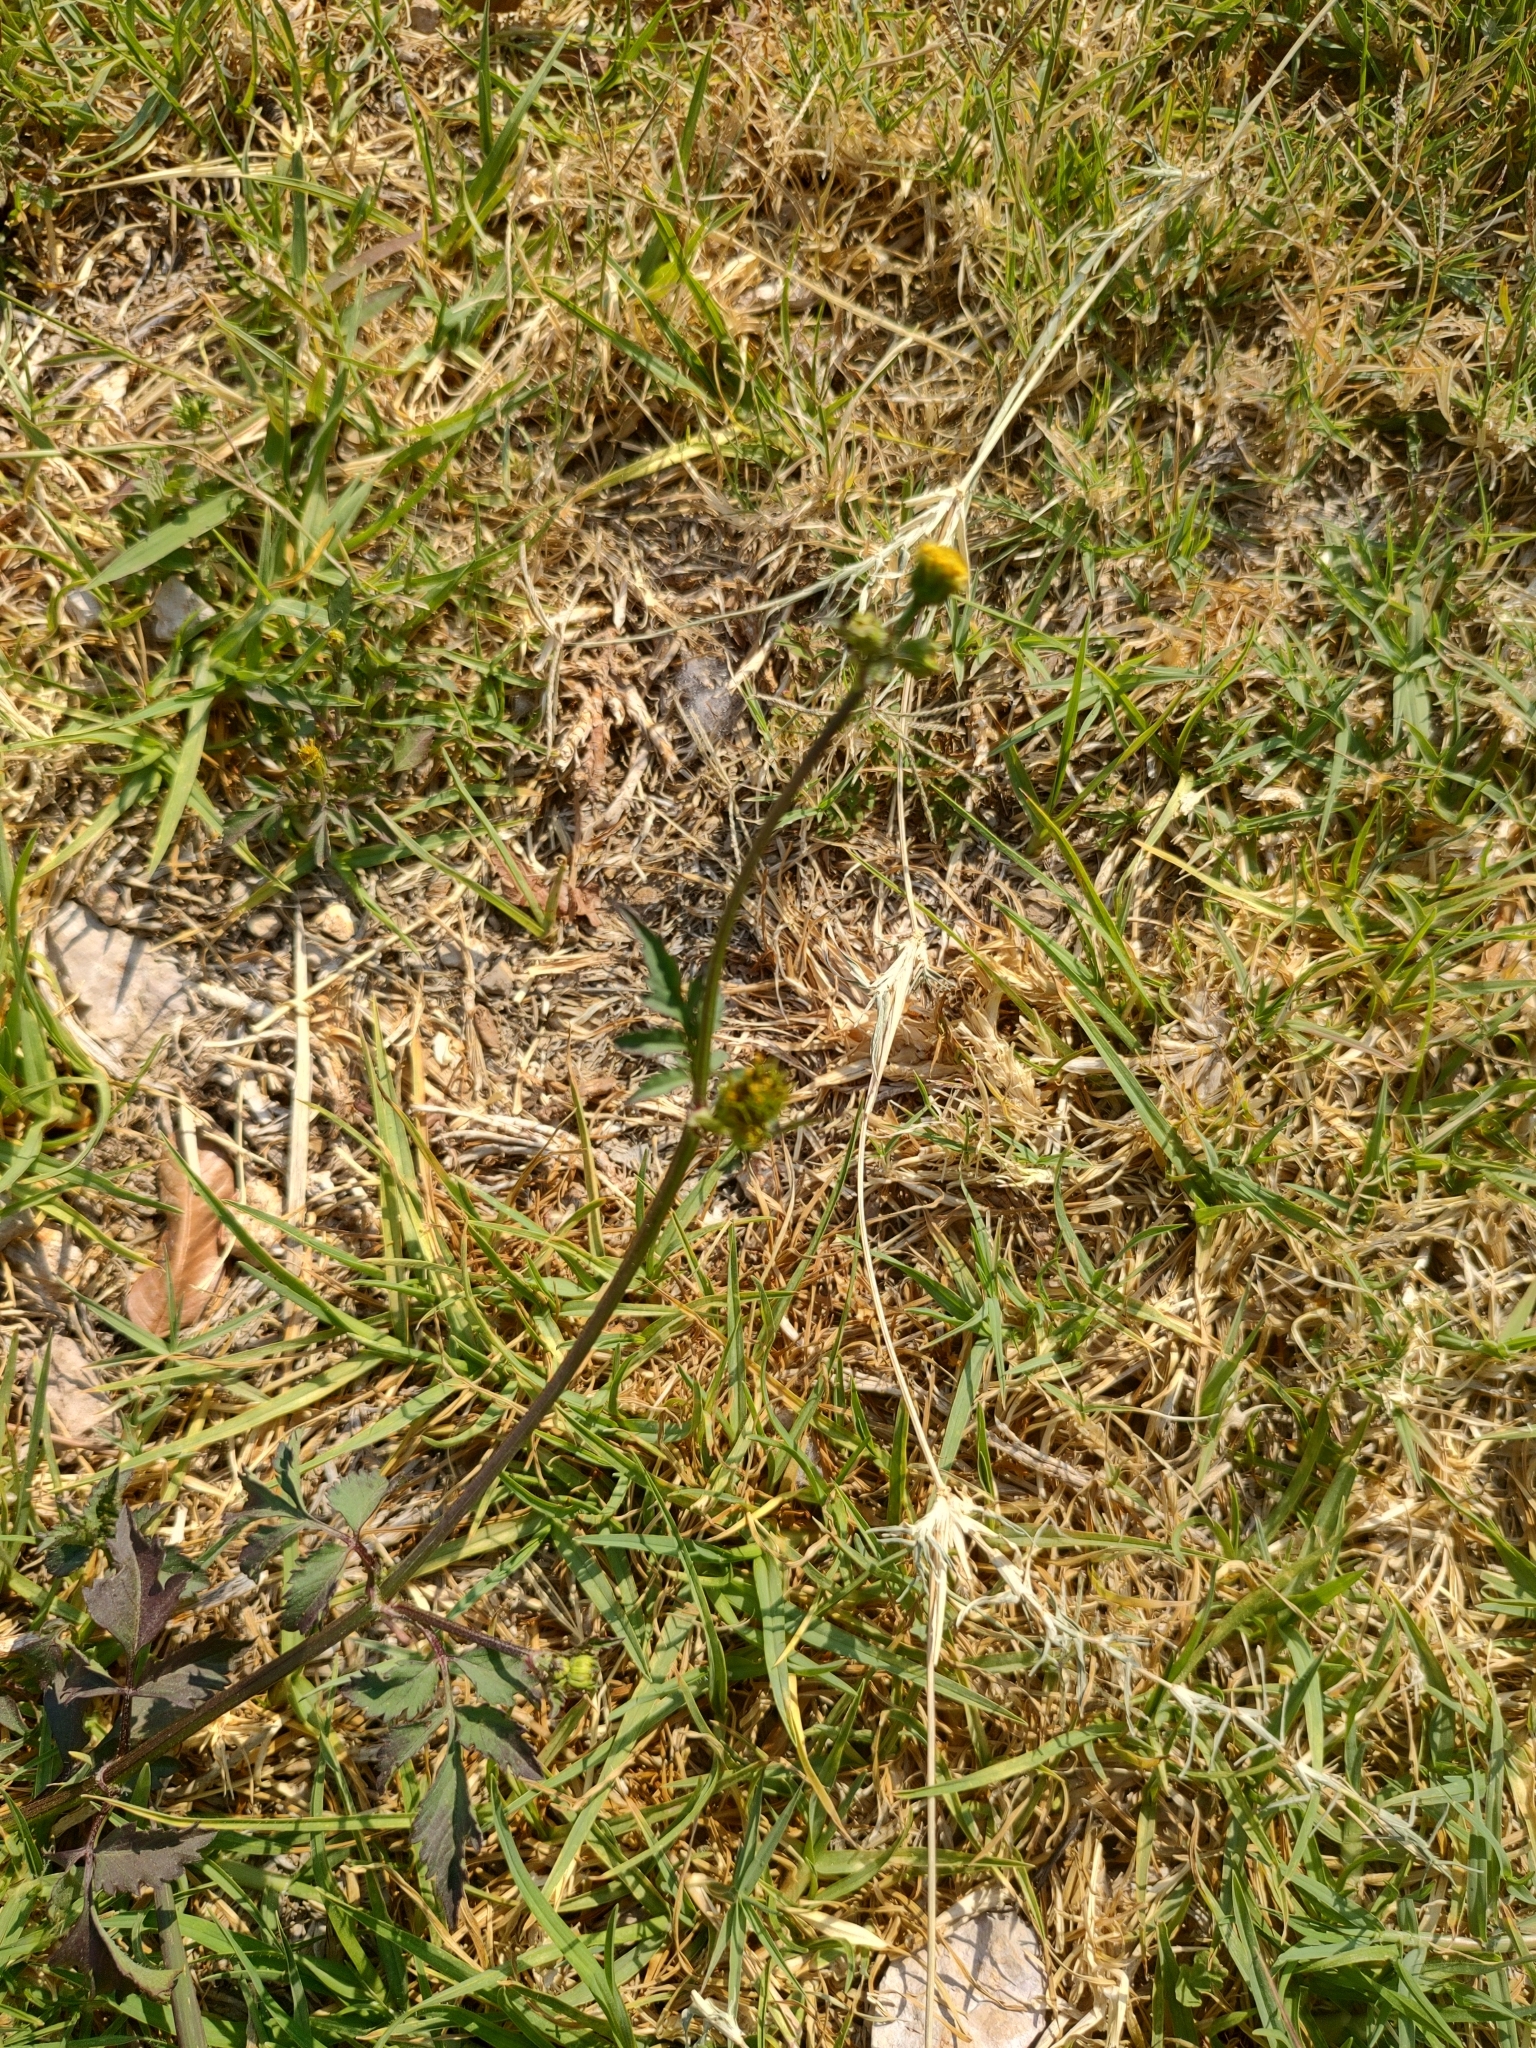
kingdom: Plantae
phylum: Tracheophyta
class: Magnoliopsida
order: Asterales
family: Asteraceae
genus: Bidens
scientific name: Bidens pilosa
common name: Black-jack
